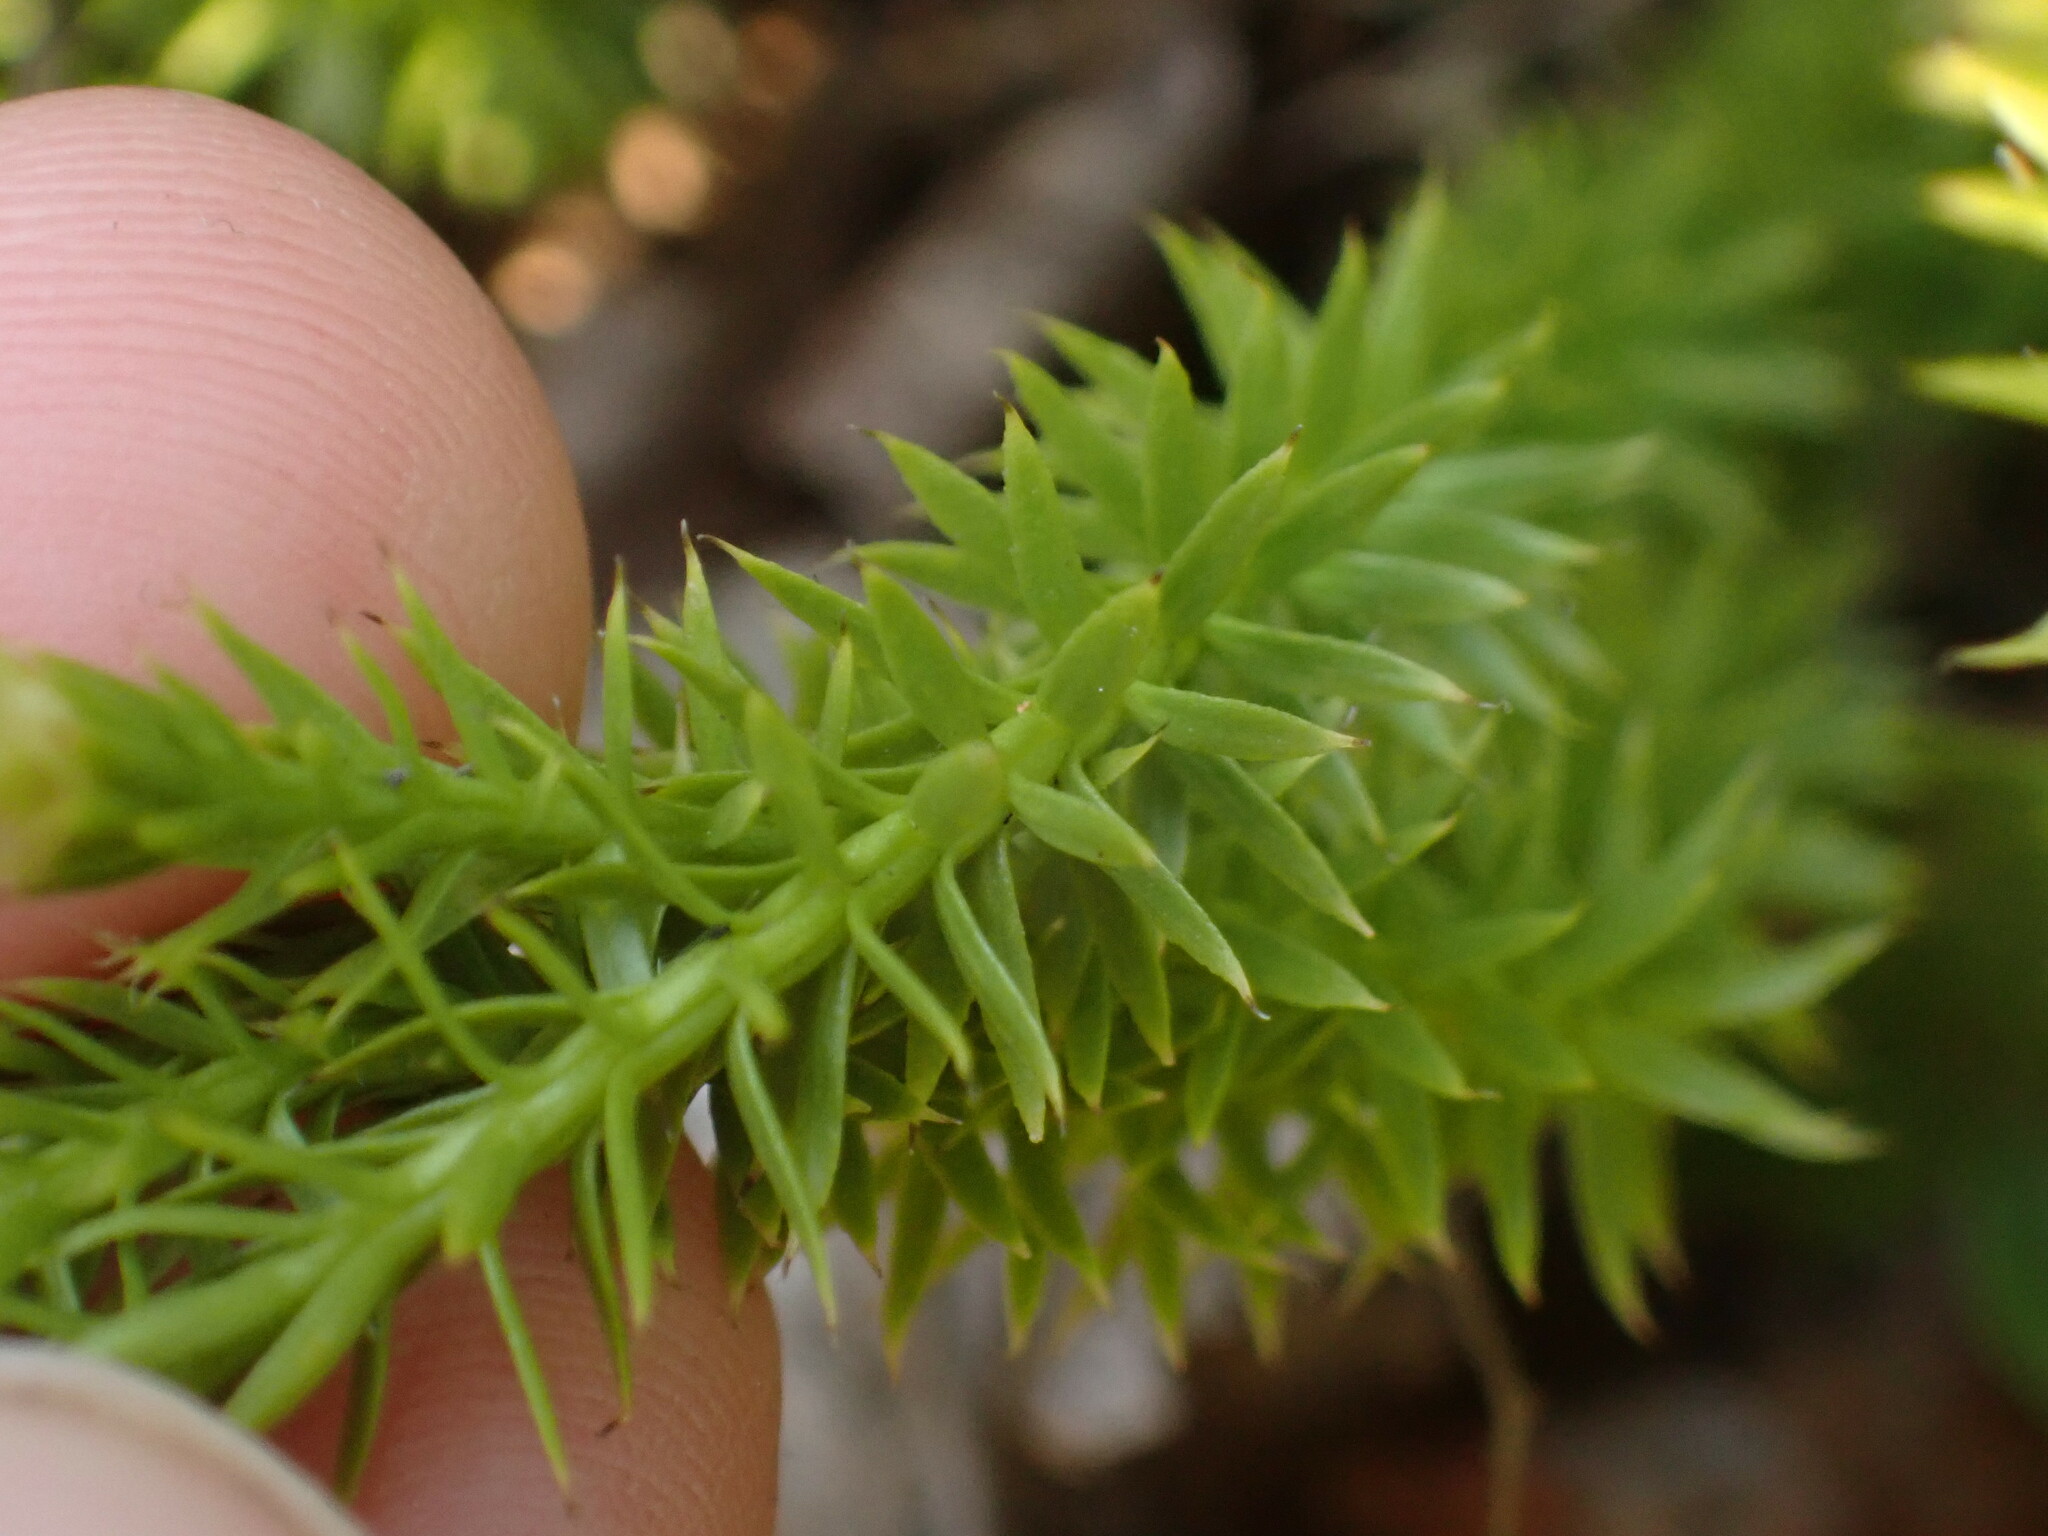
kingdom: Plantae
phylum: Tracheophyta
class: Lycopodiopsida
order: Lycopodiales
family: Lycopodiaceae
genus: Spinulum
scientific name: Spinulum annotinum
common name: Interrupted club-moss
